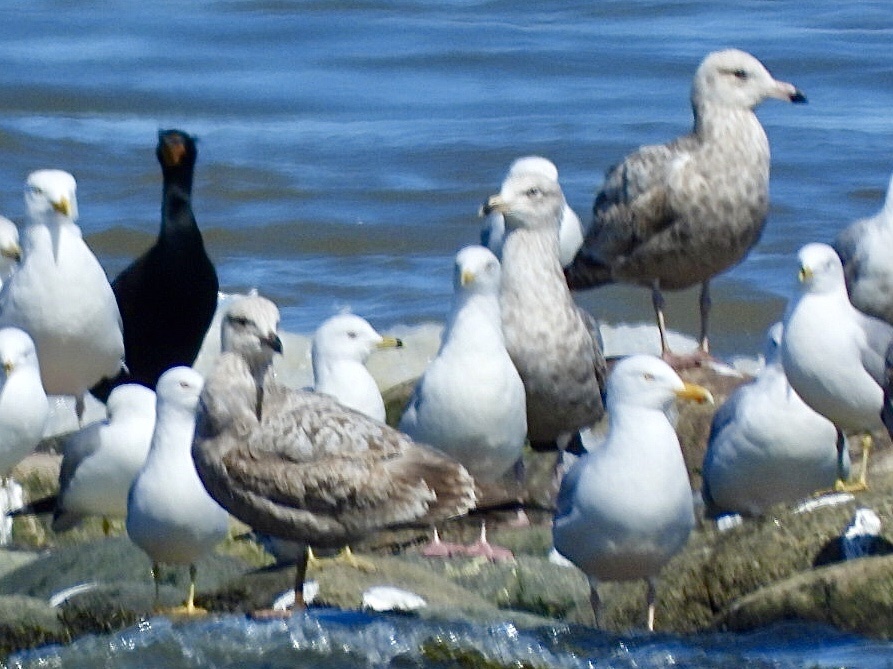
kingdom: Animalia
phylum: Chordata
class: Aves
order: Charadriiformes
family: Laridae
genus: Larus
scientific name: Larus argentatus
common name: Herring gull
